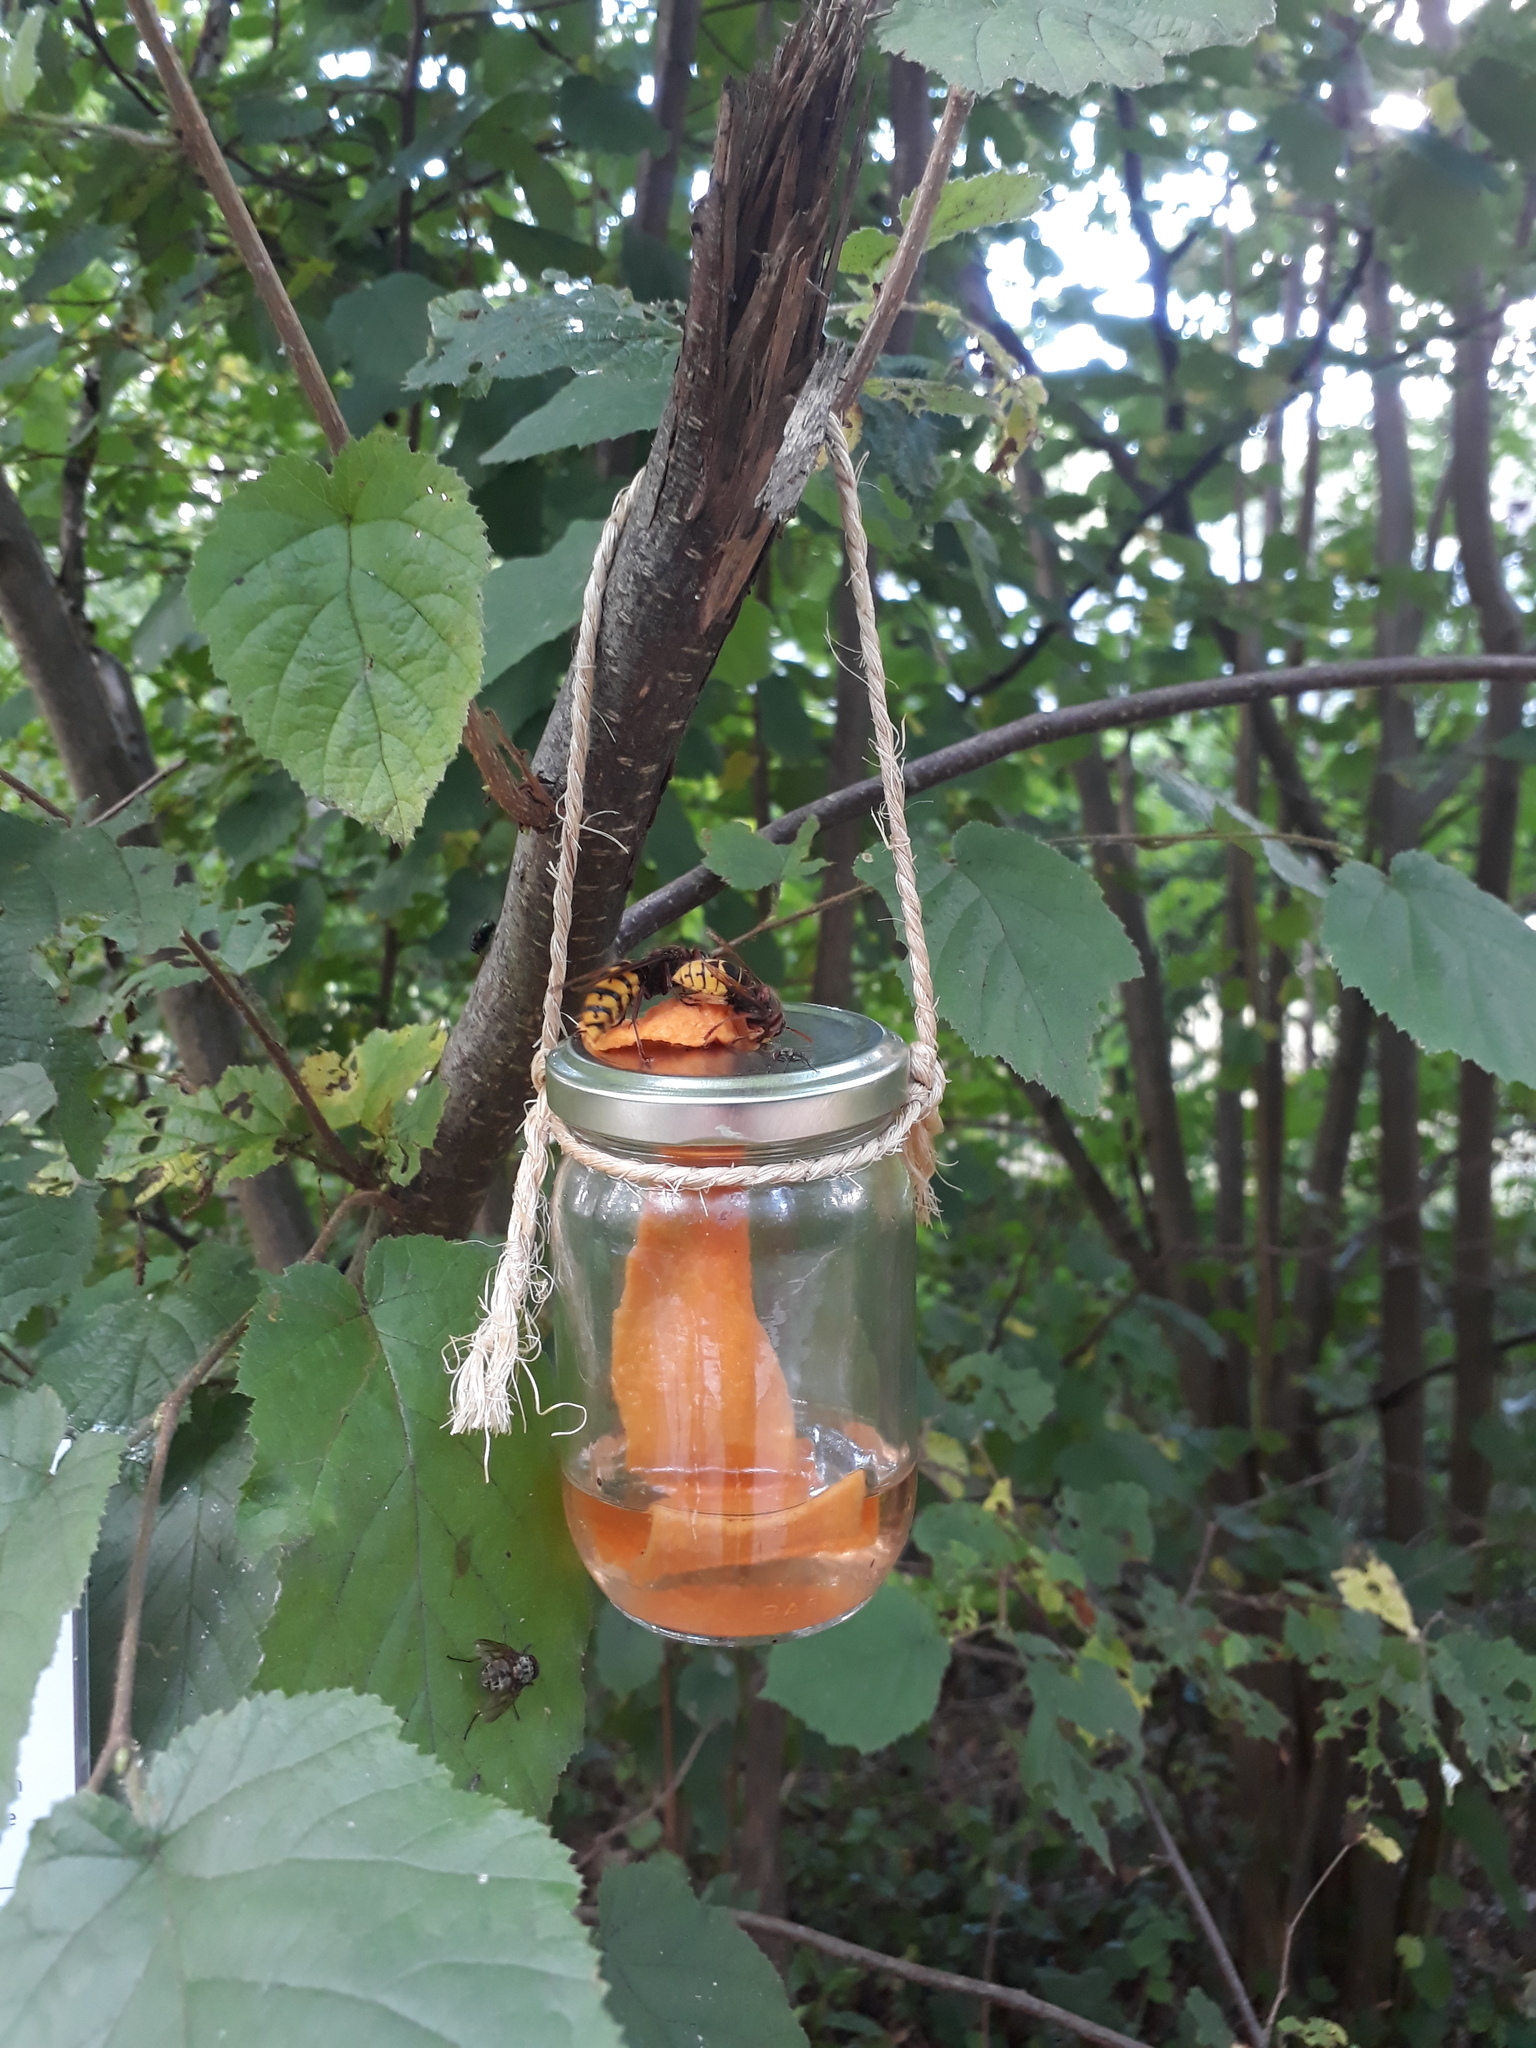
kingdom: Animalia
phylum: Arthropoda
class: Insecta
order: Hymenoptera
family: Vespidae
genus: Vespa
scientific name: Vespa crabro
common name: Hornet
